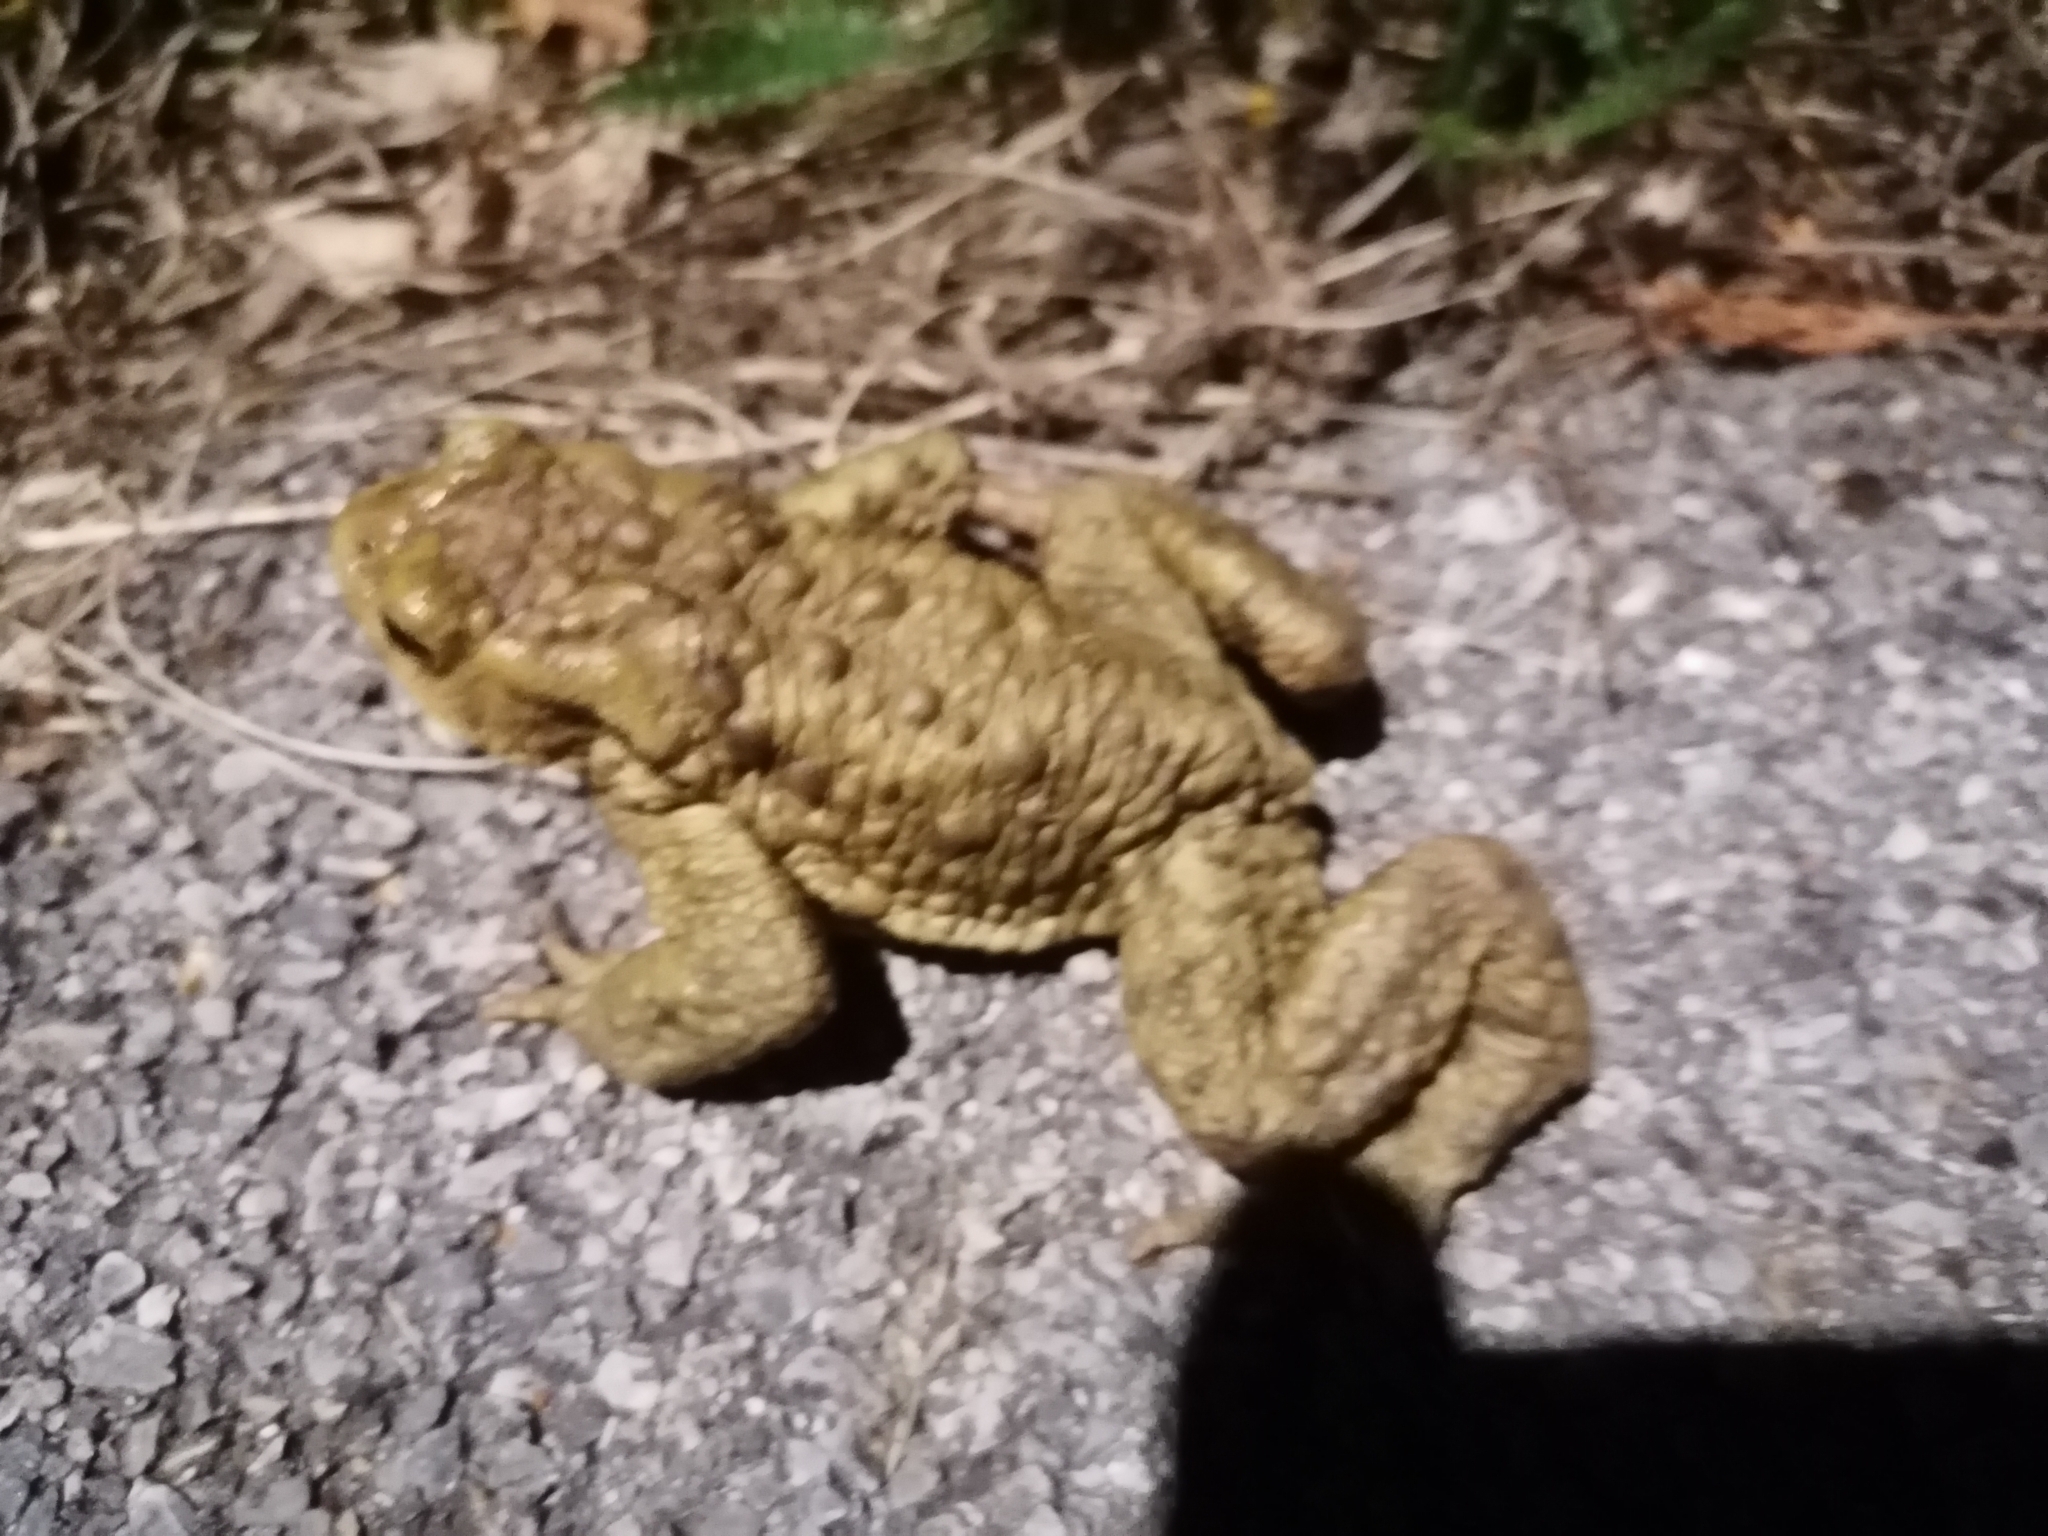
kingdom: Animalia
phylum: Chordata
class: Amphibia
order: Anura
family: Bufonidae
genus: Bufo
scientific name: Bufo bufo
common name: Common toad
